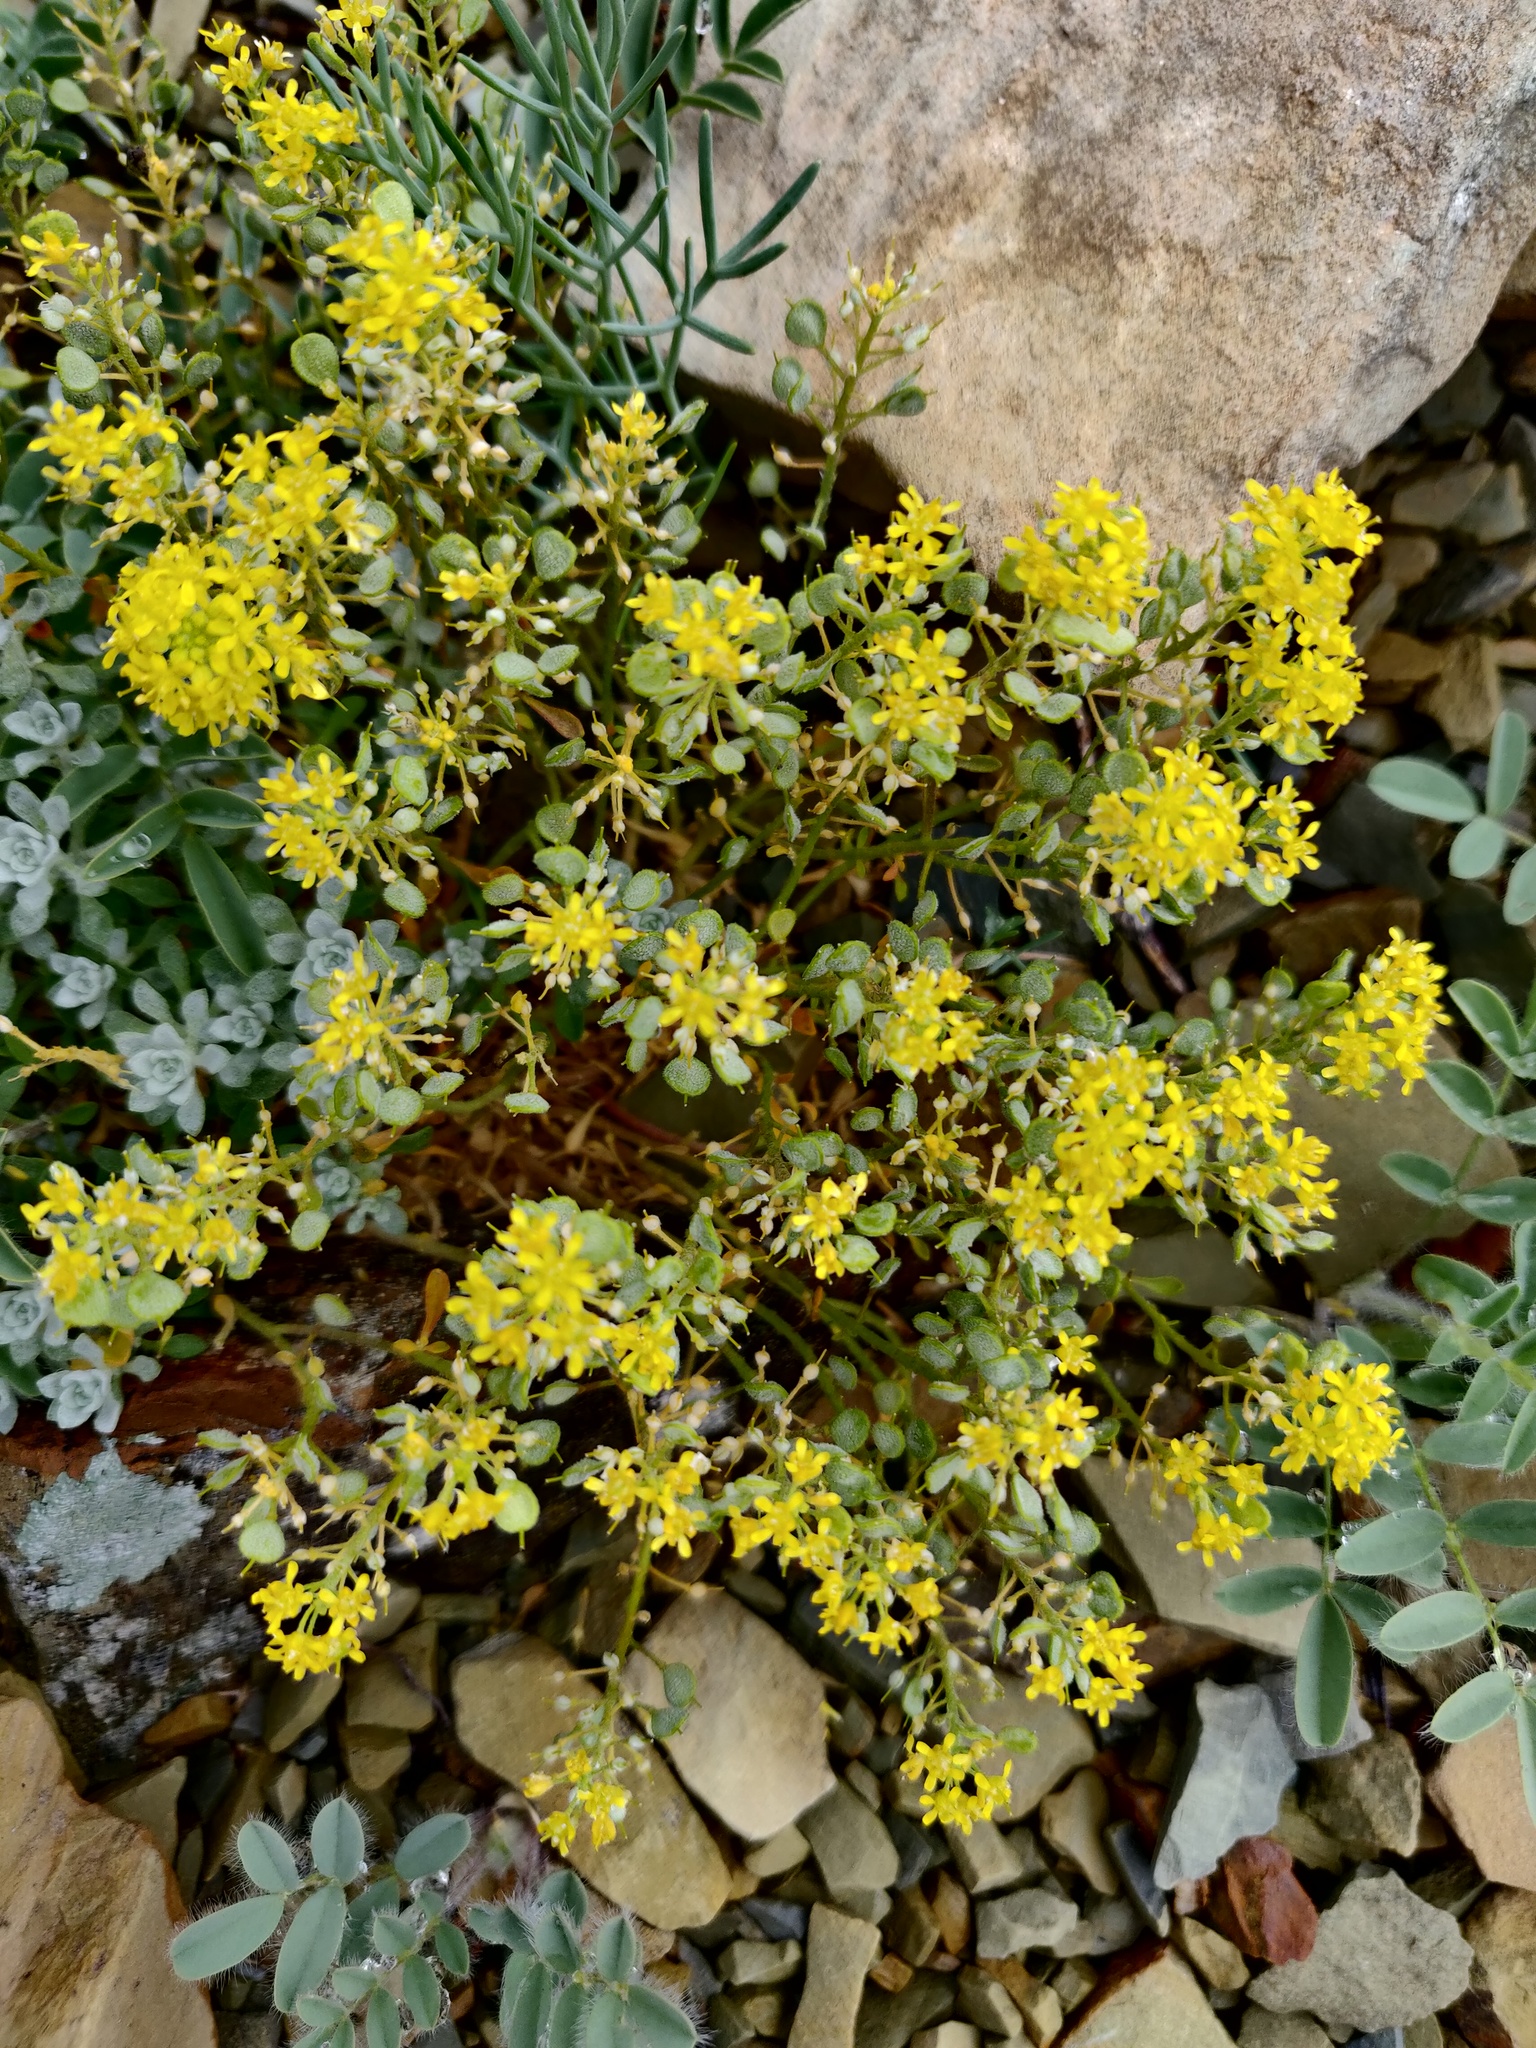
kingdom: Plantae
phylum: Tracheophyta
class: Magnoliopsida
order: Brassicales
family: Brassicaceae
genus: Odontarrhena
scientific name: Odontarrhena obtusifolia
